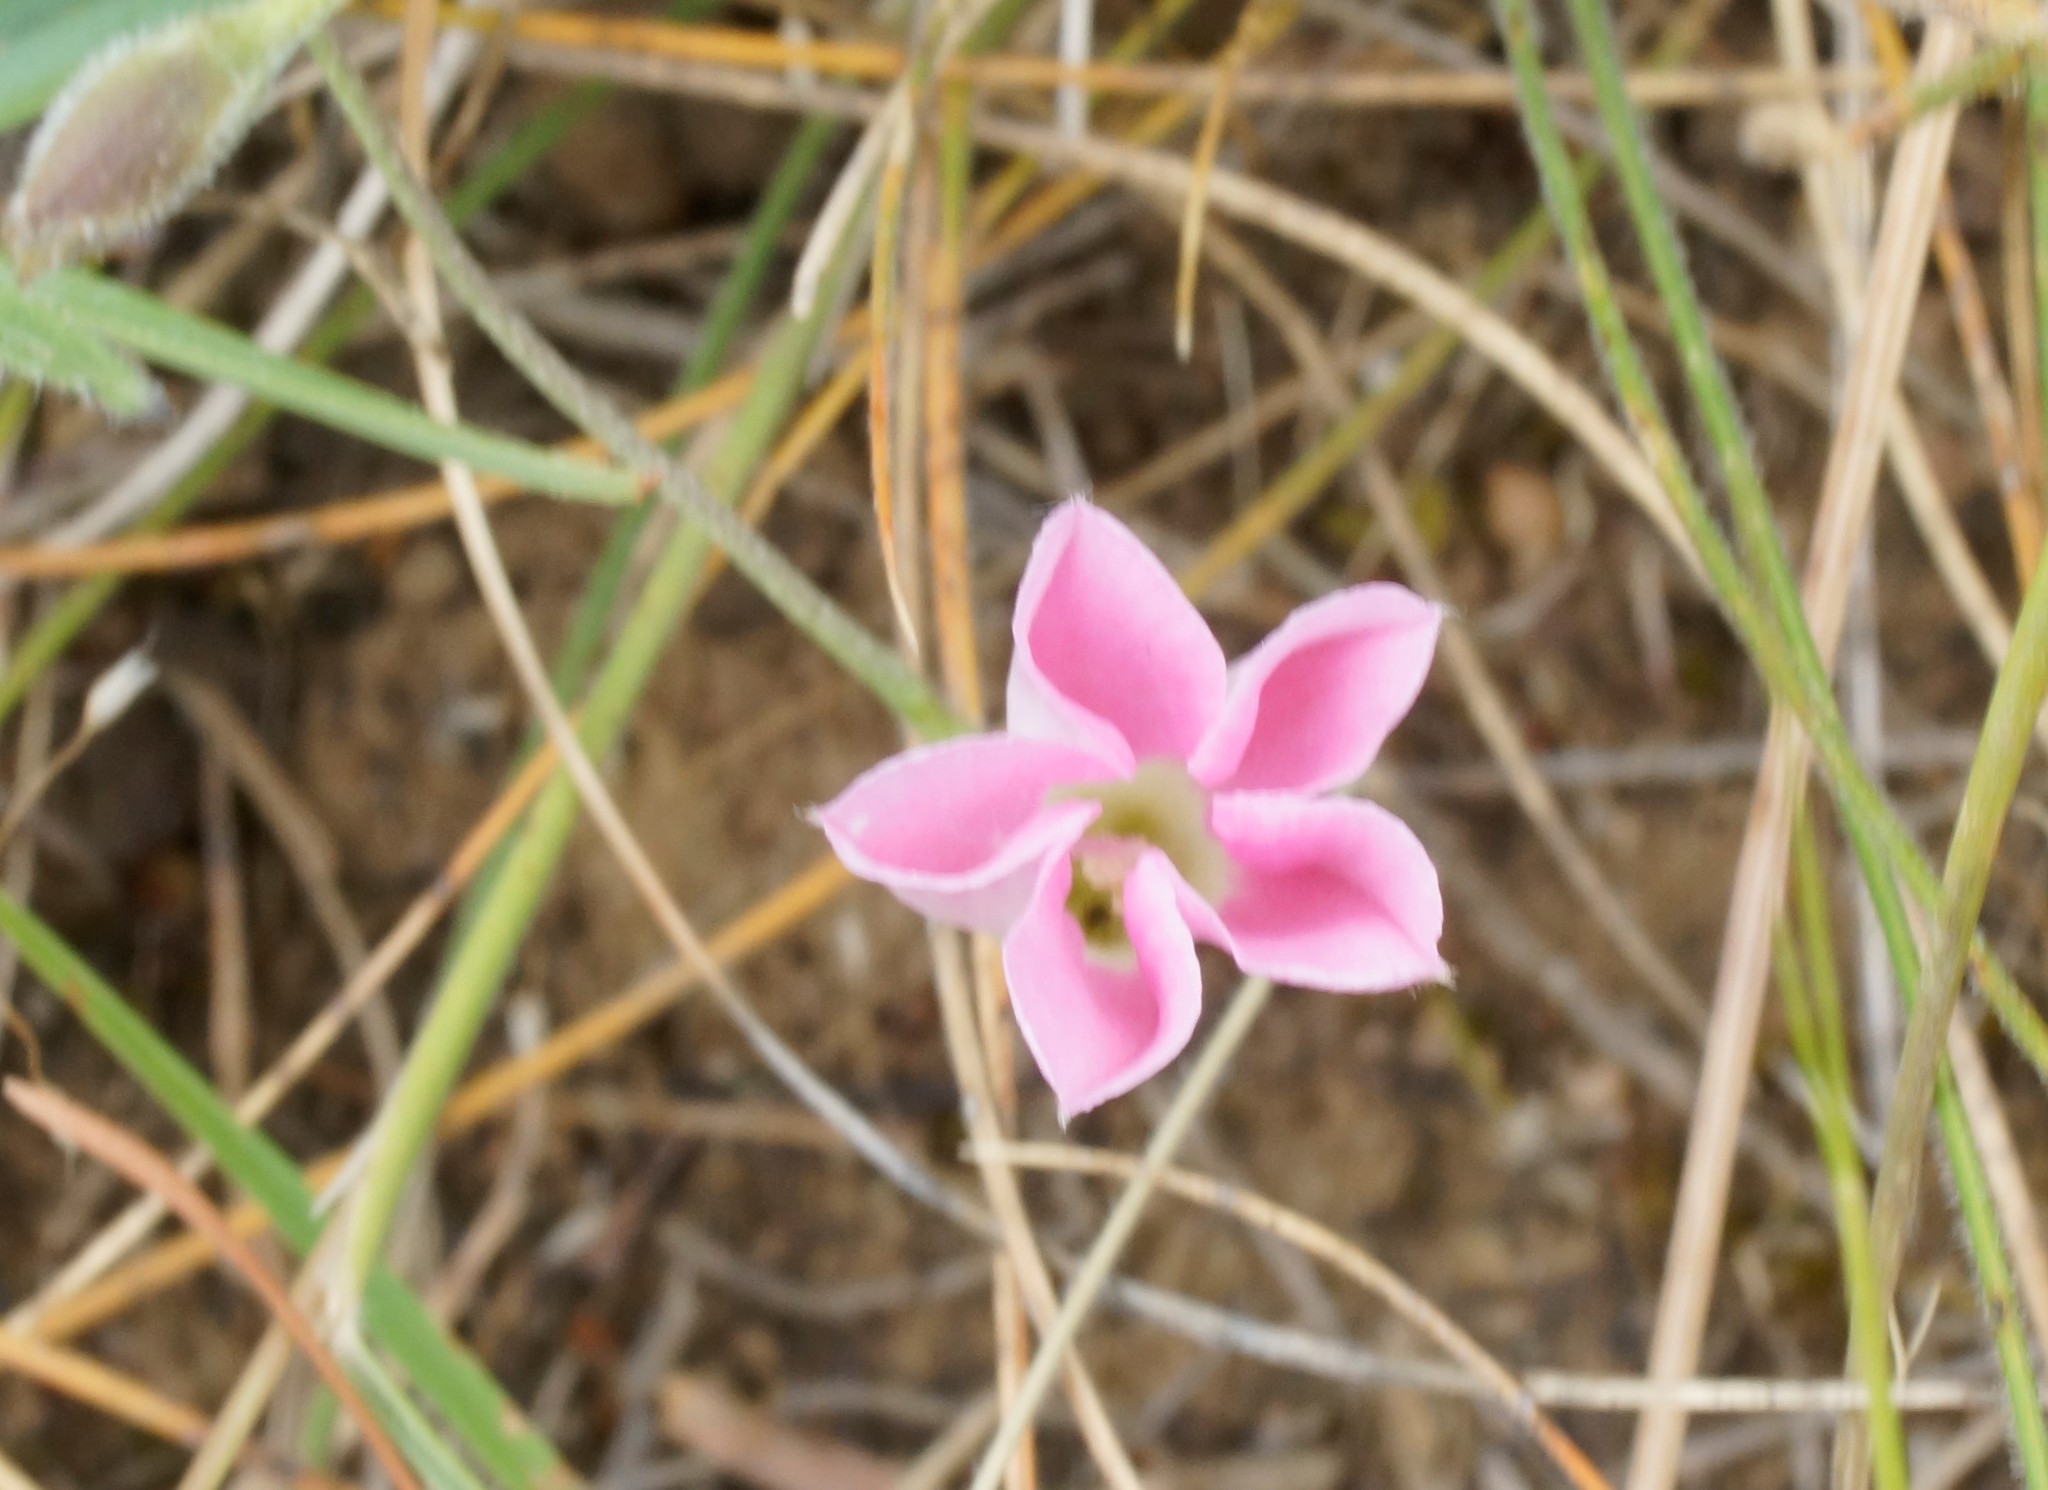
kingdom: Plantae
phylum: Tracheophyta
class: Magnoliopsida
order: Solanales
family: Convolvulaceae
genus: Convolvulus
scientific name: Convolvulus angustissimus
